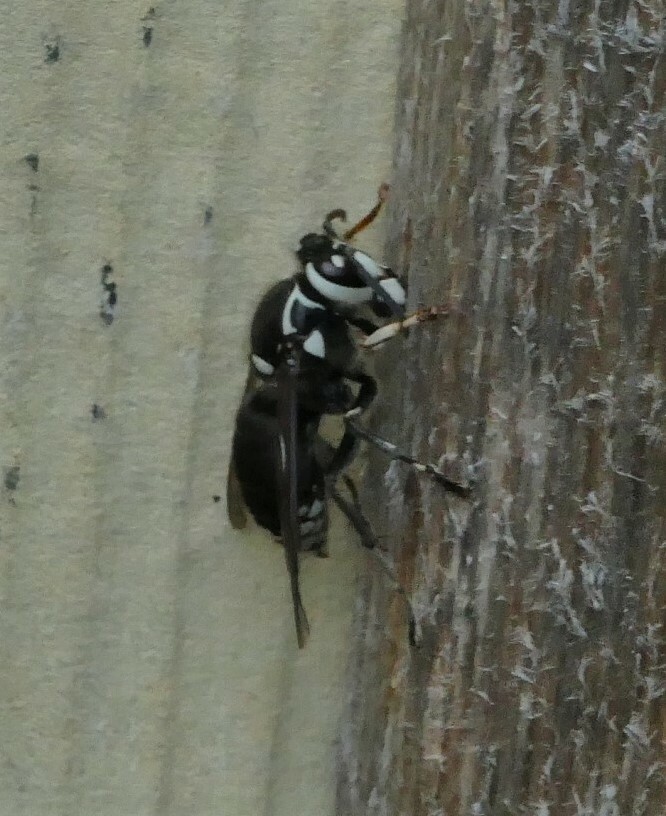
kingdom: Animalia
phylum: Arthropoda
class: Insecta
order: Hymenoptera
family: Vespidae
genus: Dolichovespula
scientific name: Dolichovespula maculata
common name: Bald-faced hornet
